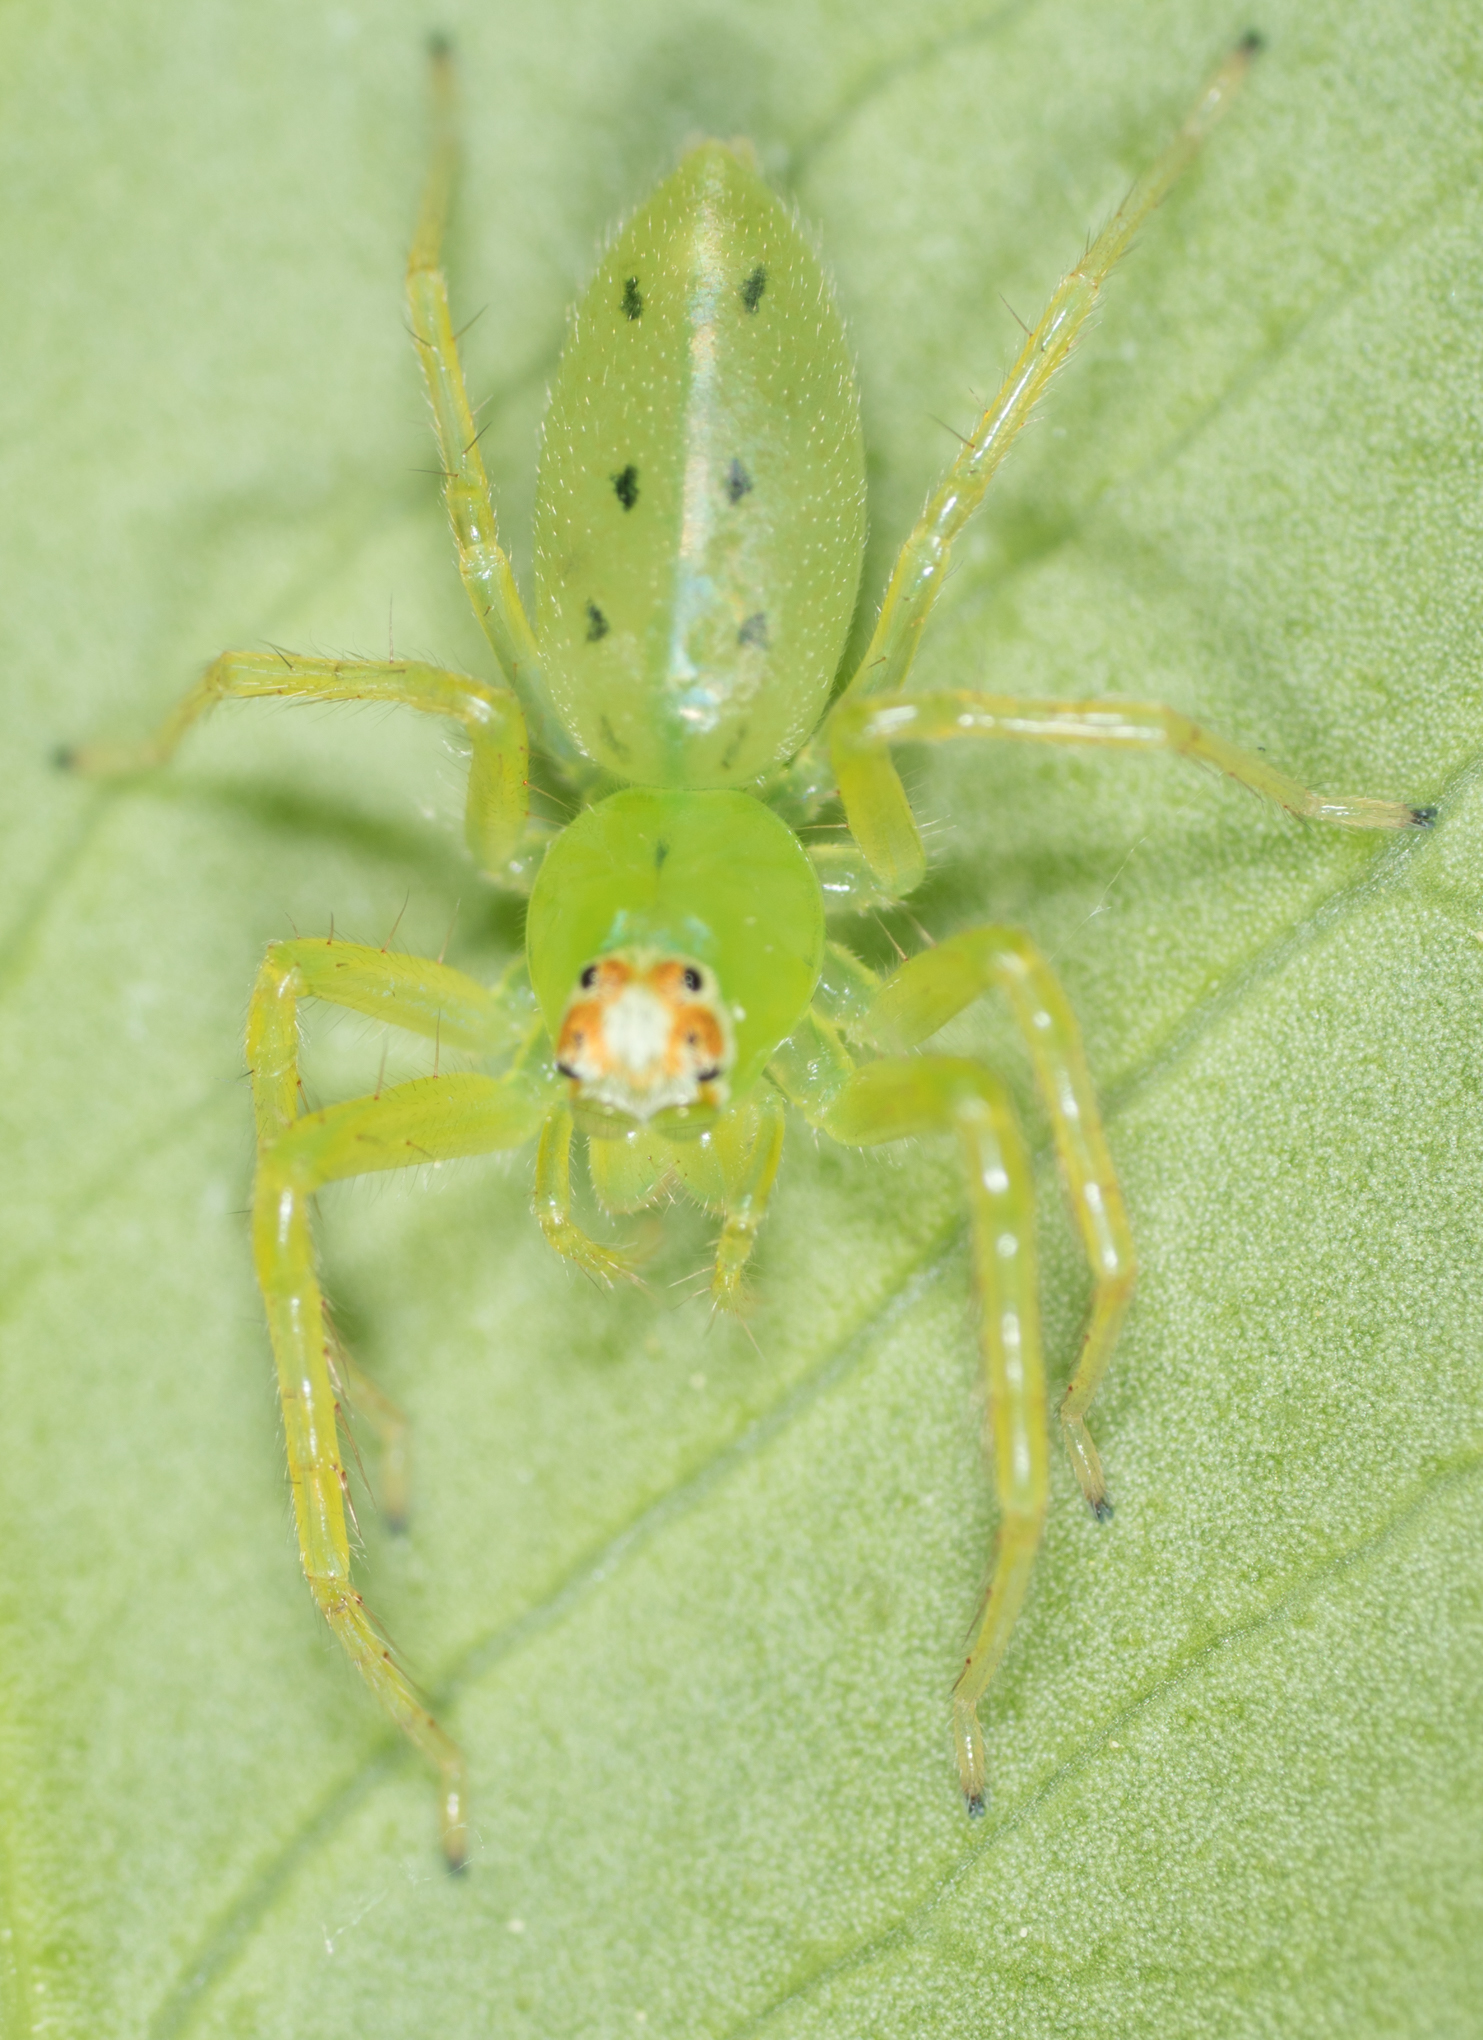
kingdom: Animalia
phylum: Arthropoda
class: Arachnida
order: Araneae
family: Salticidae
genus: Lyssomanes
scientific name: Lyssomanes viridis
